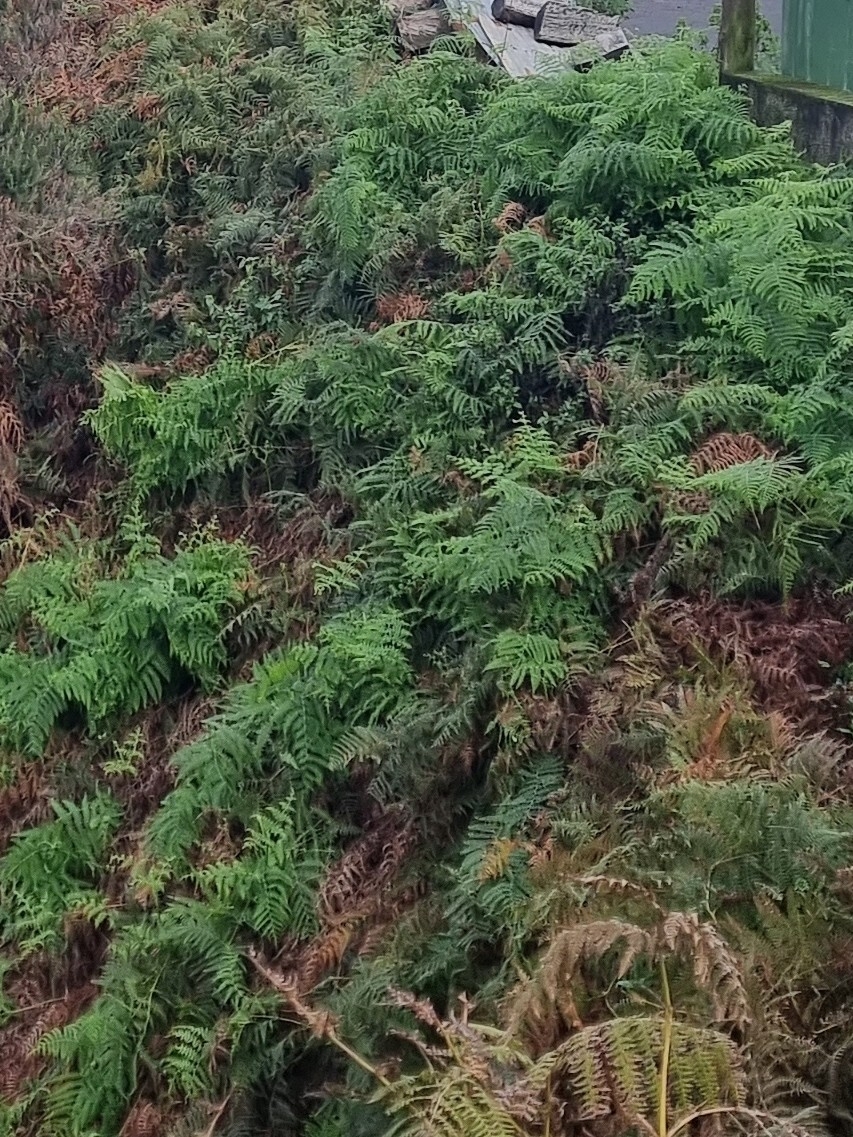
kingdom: Plantae
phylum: Tracheophyta
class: Polypodiopsida
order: Polypodiales
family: Dennstaedtiaceae
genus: Pteridium
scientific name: Pteridium aquilinum
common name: Bracken
